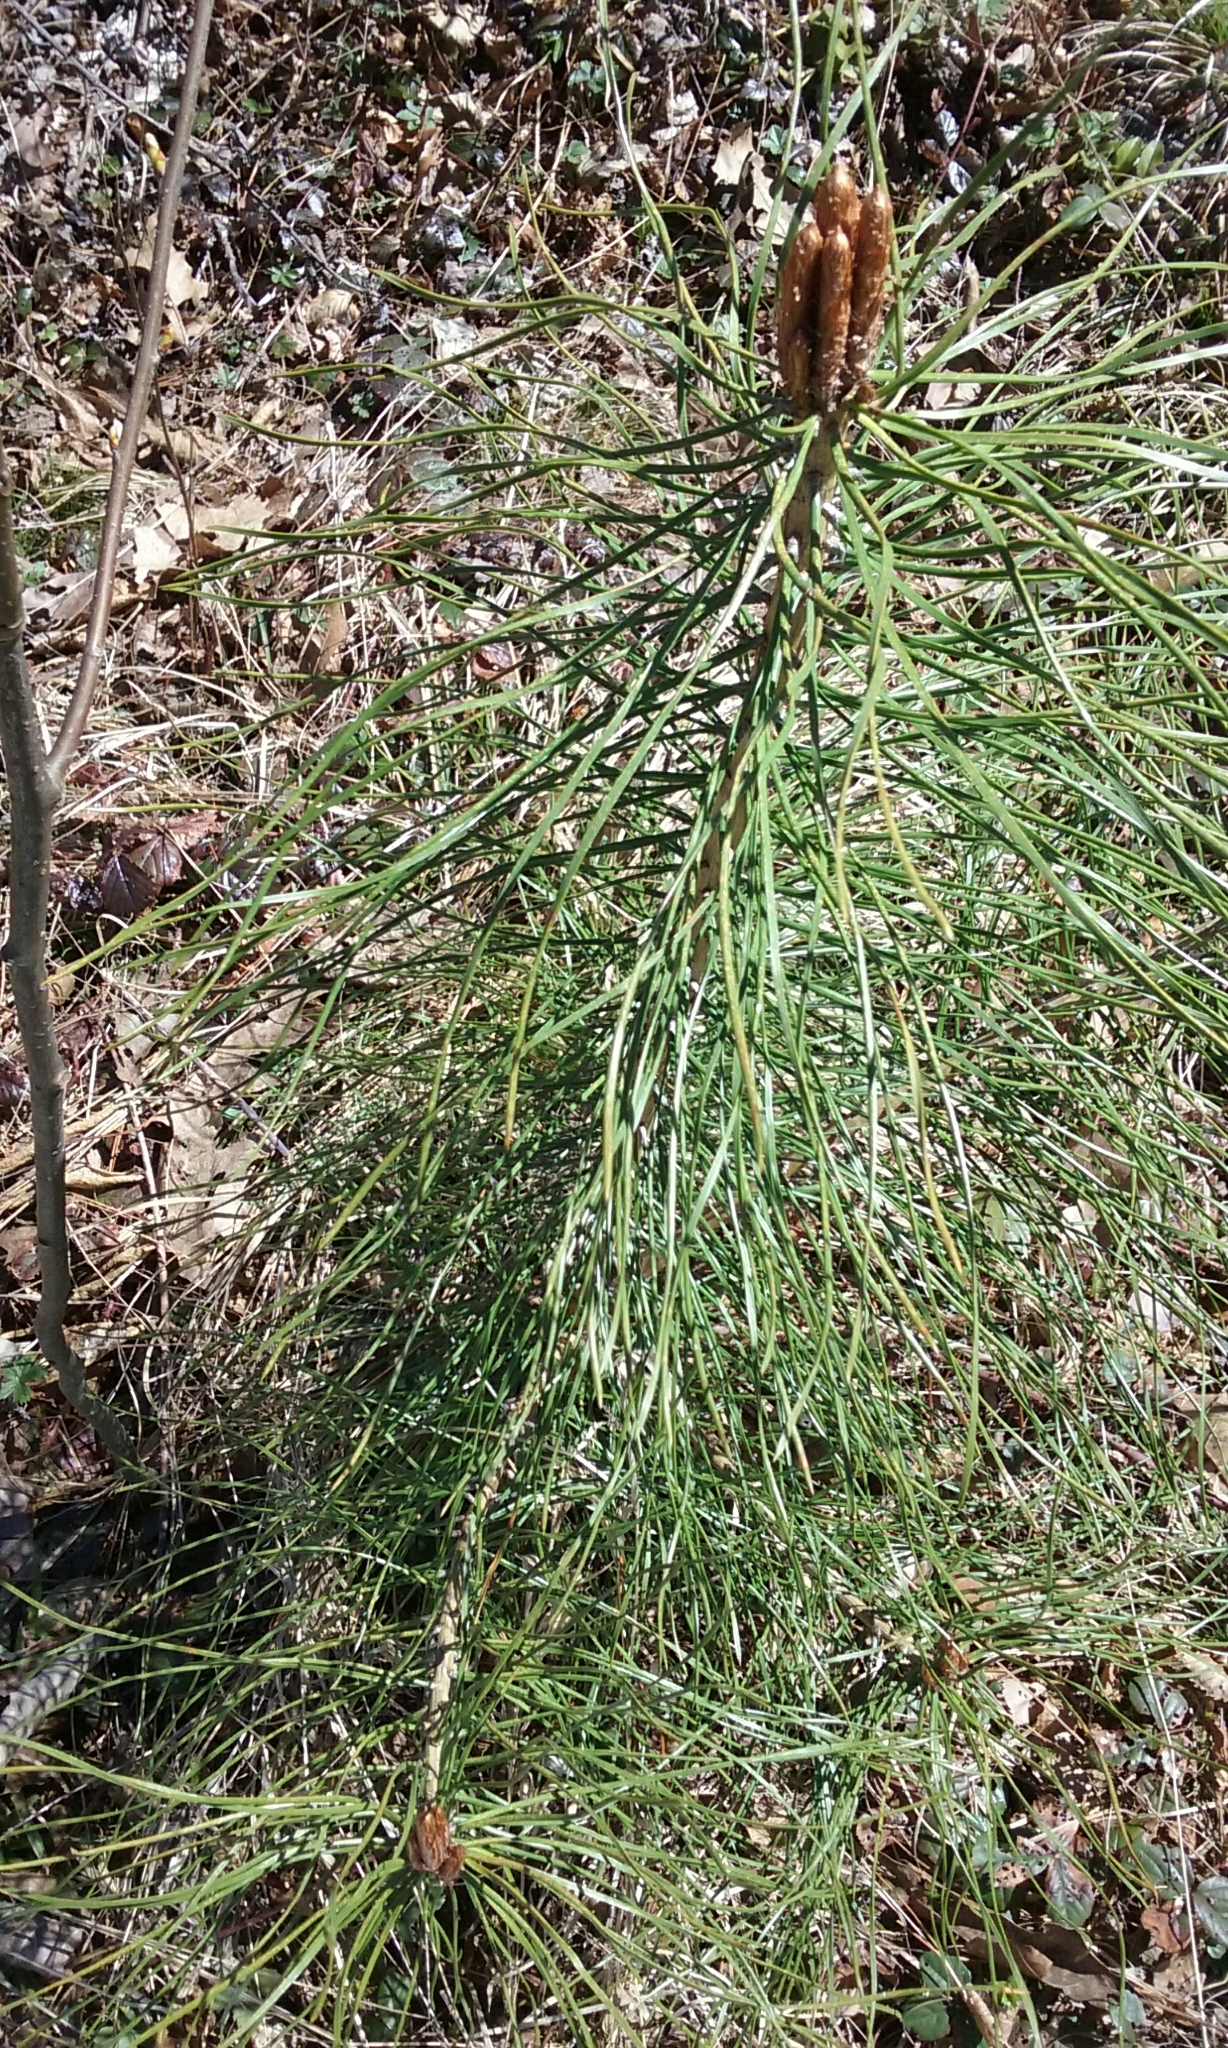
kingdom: Plantae
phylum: Tracheophyta
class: Pinopsida
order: Pinales
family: Pinaceae
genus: Pinus
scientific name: Pinus resinosa
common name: Norway pine
